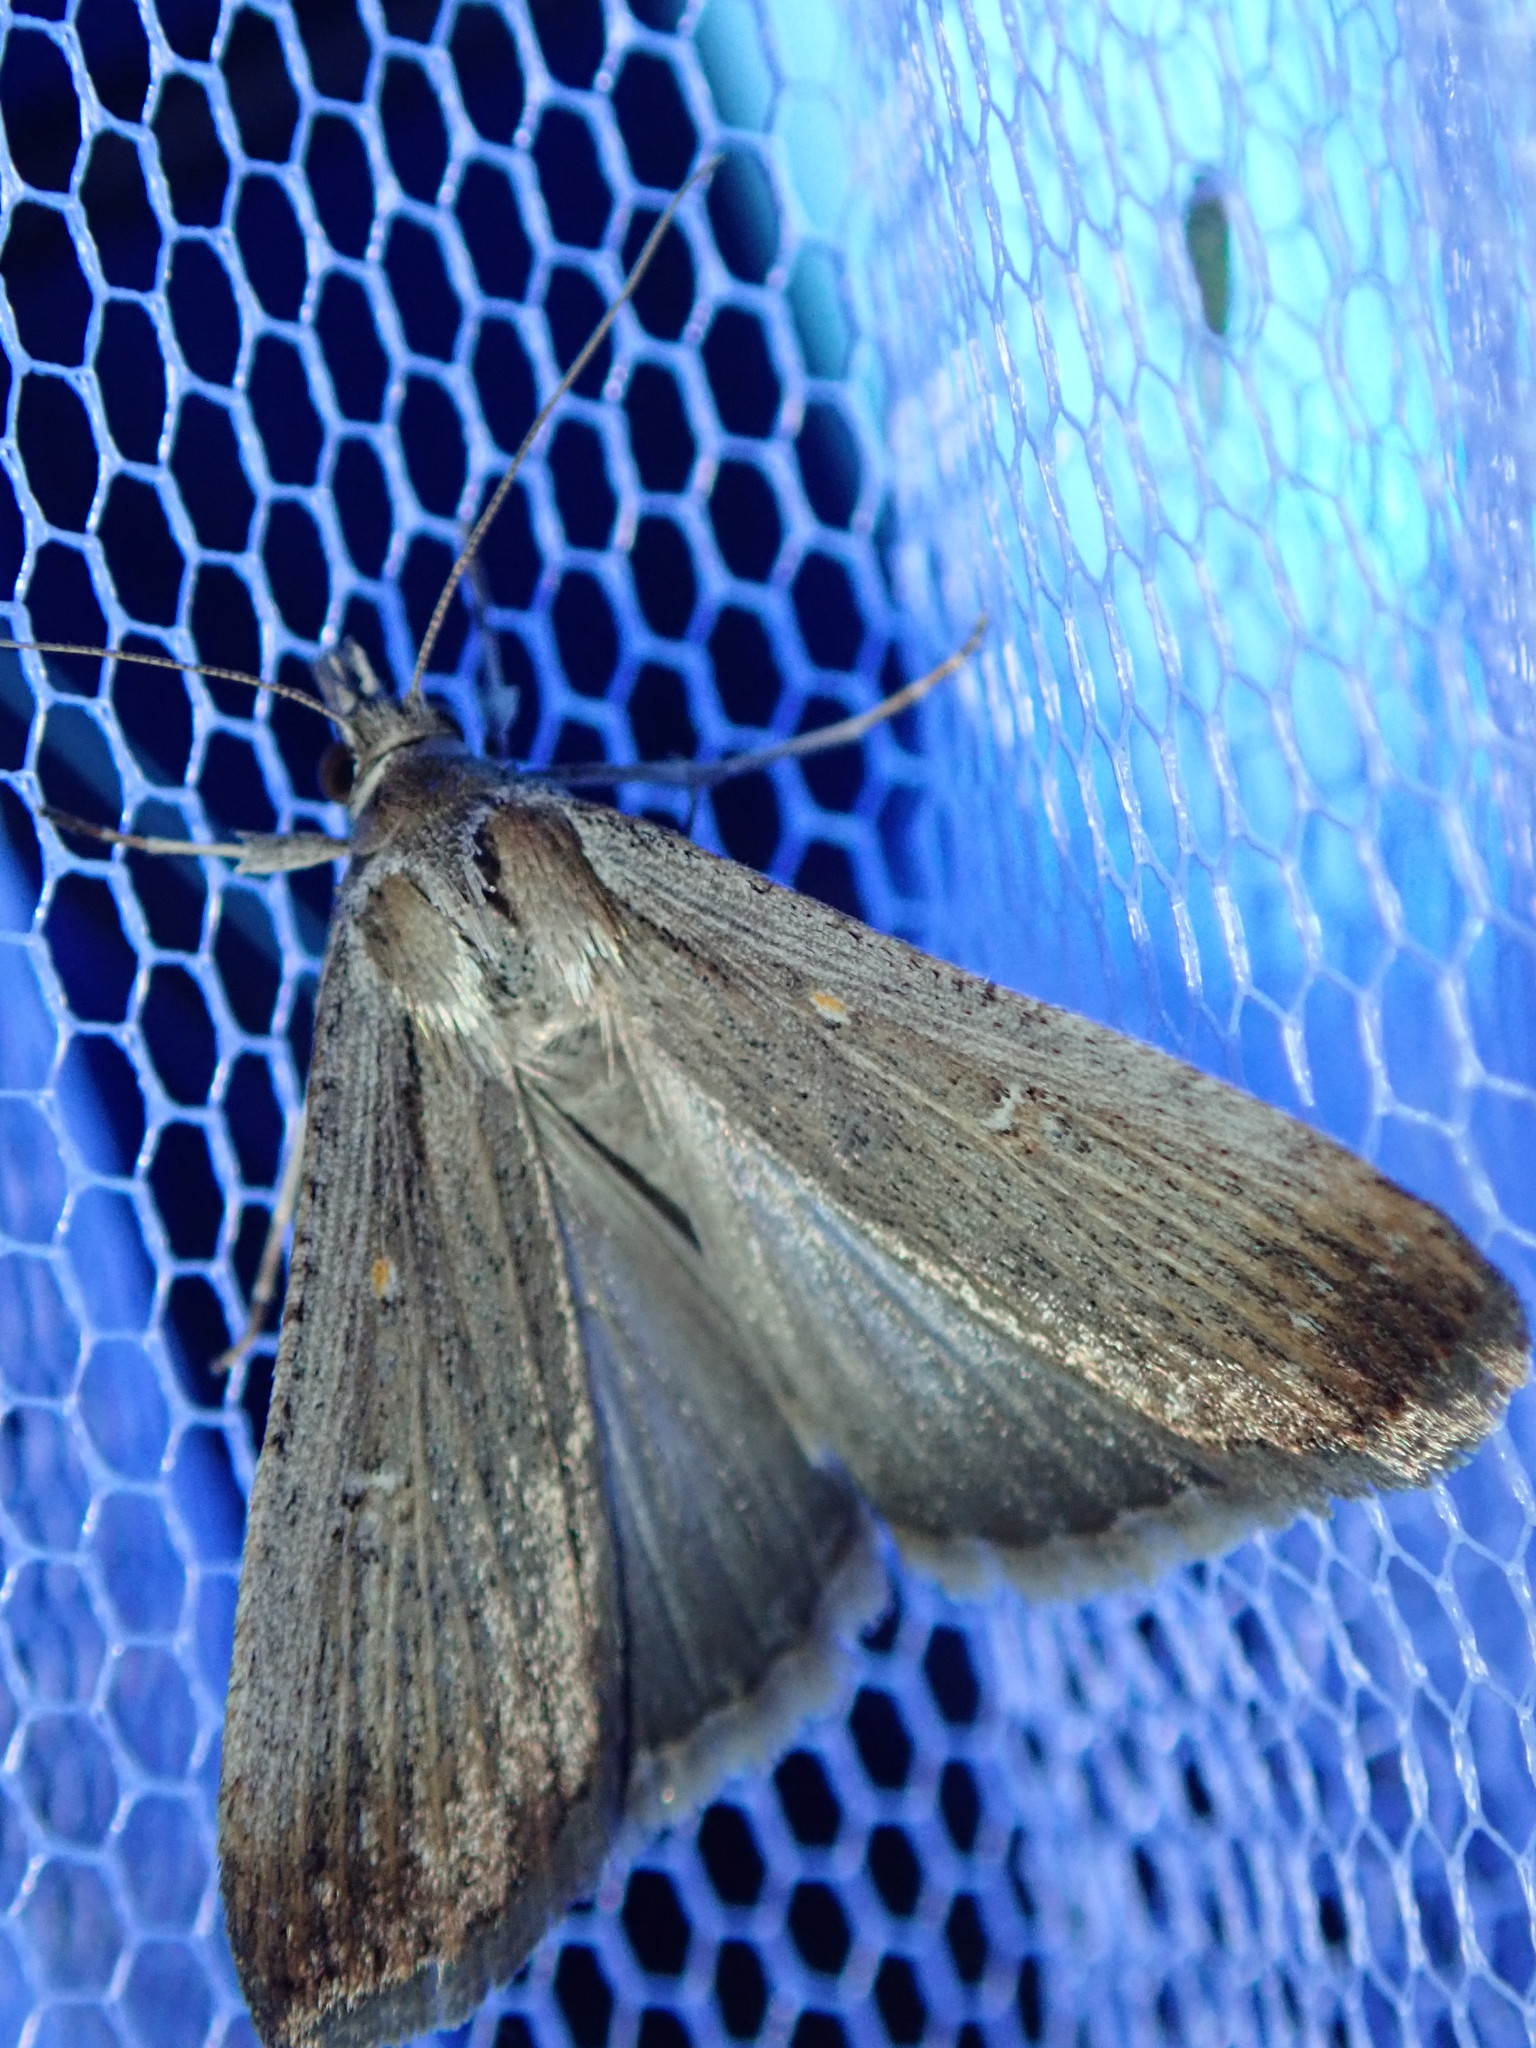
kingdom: Animalia
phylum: Arthropoda
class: Insecta
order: Lepidoptera
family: Noctuidae
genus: Tathorhynchus
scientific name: Tathorhynchus fallax
